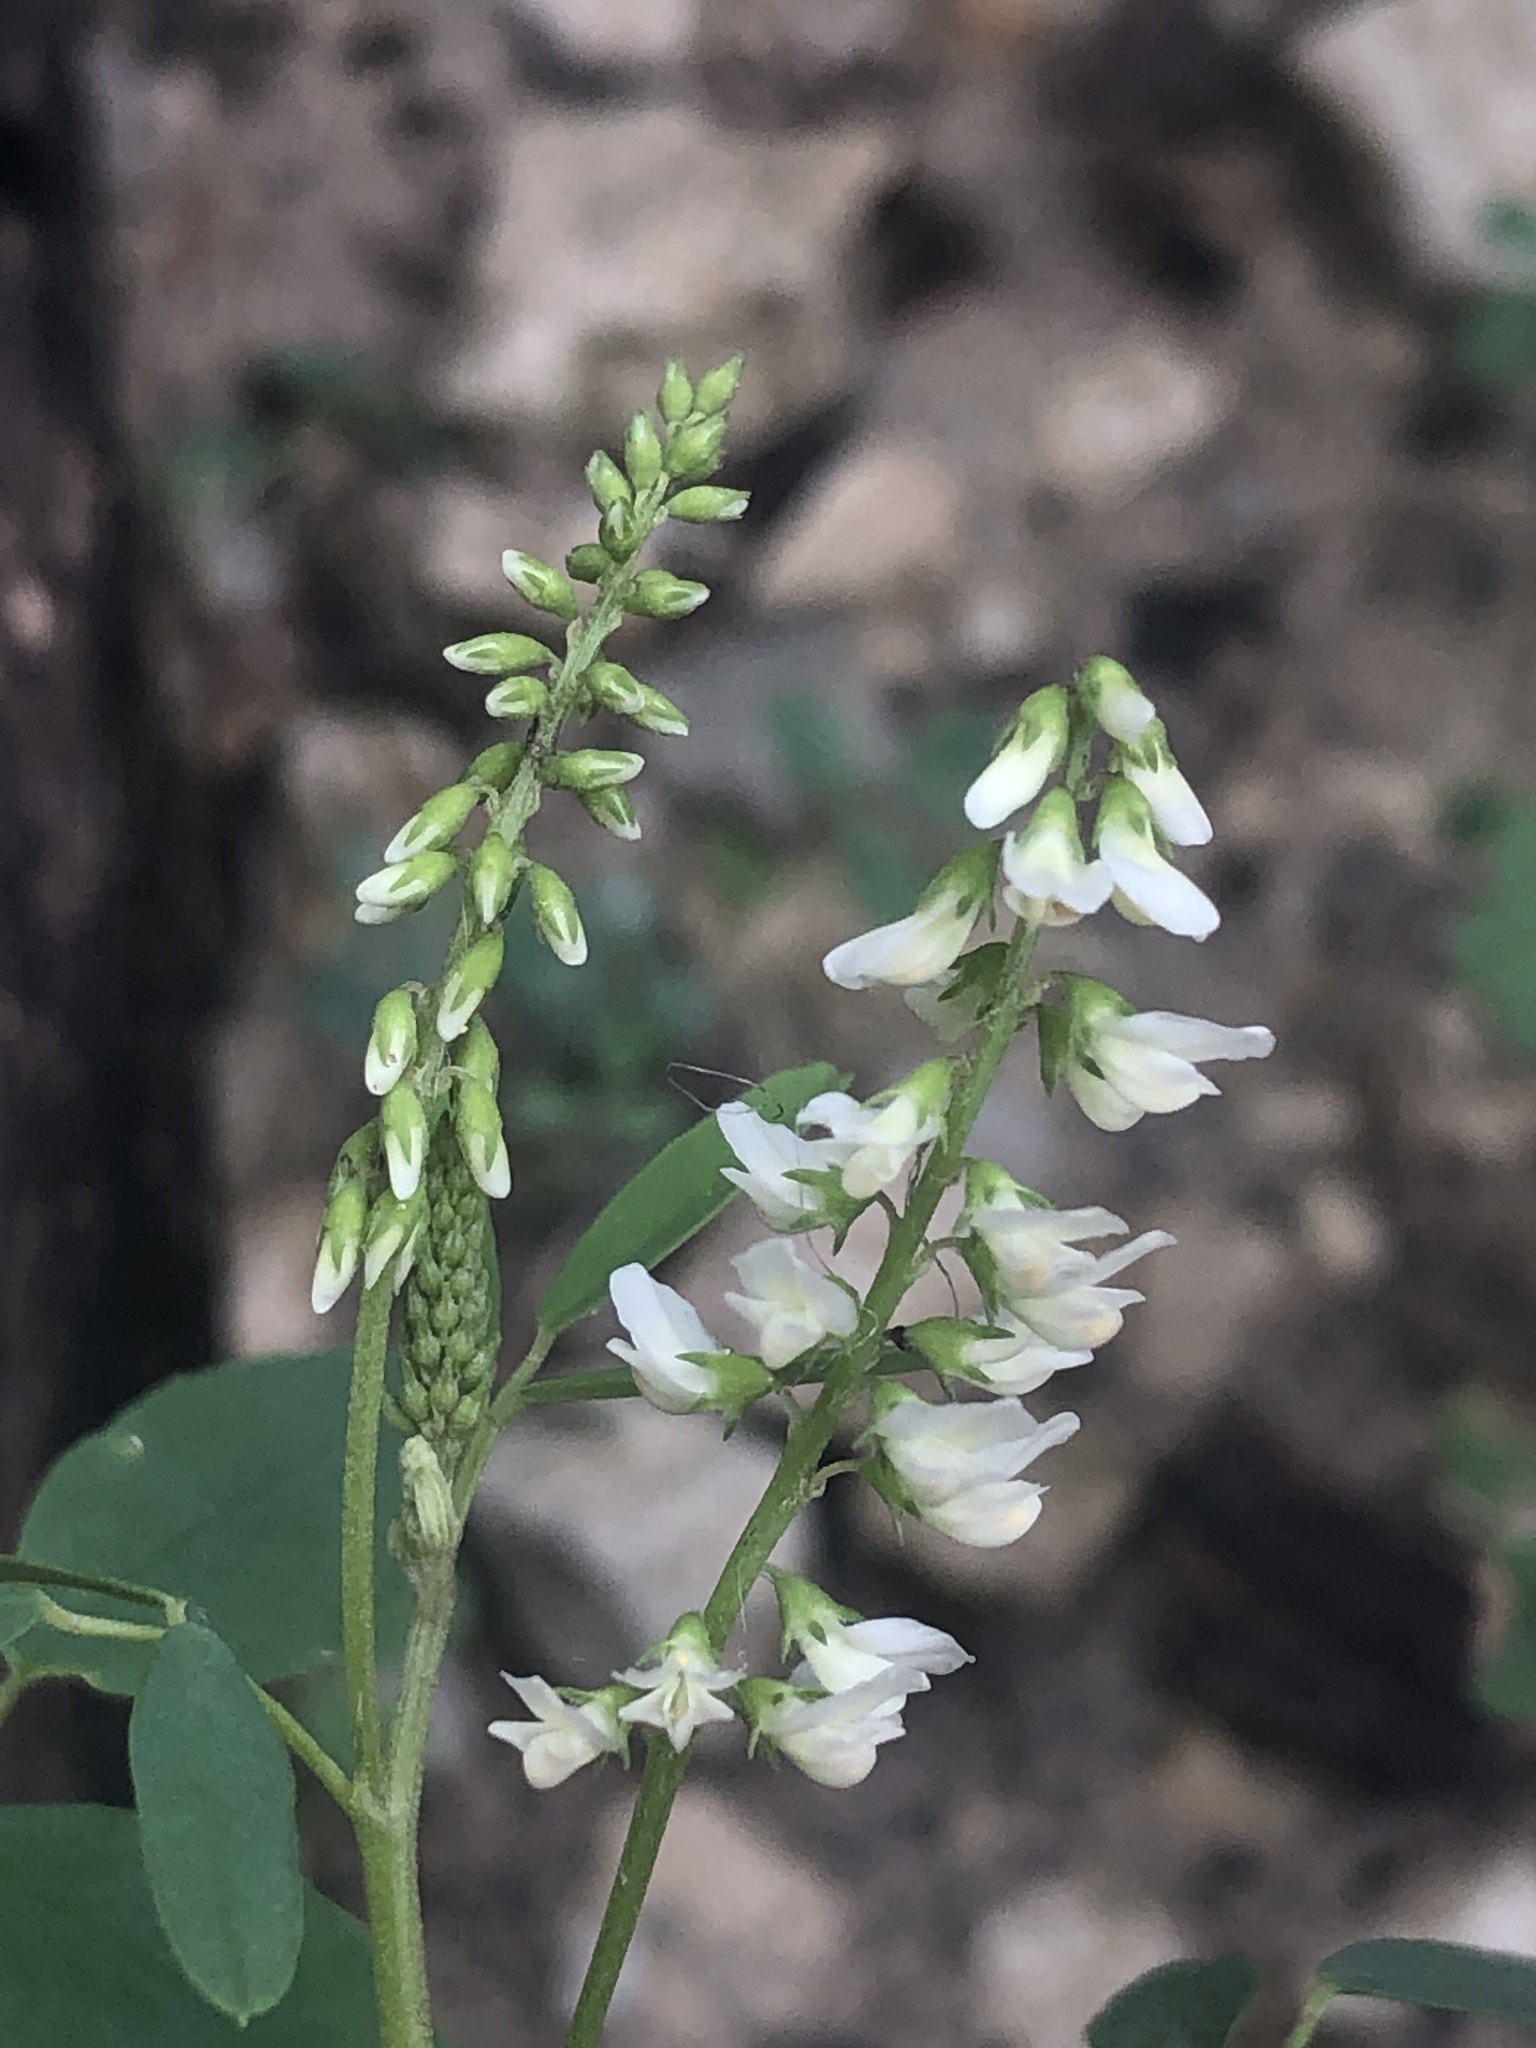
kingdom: Plantae
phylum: Tracheophyta
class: Magnoliopsida
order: Fabales
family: Fabaceae
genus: Melilotus
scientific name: Melilotus albus
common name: White melilot
